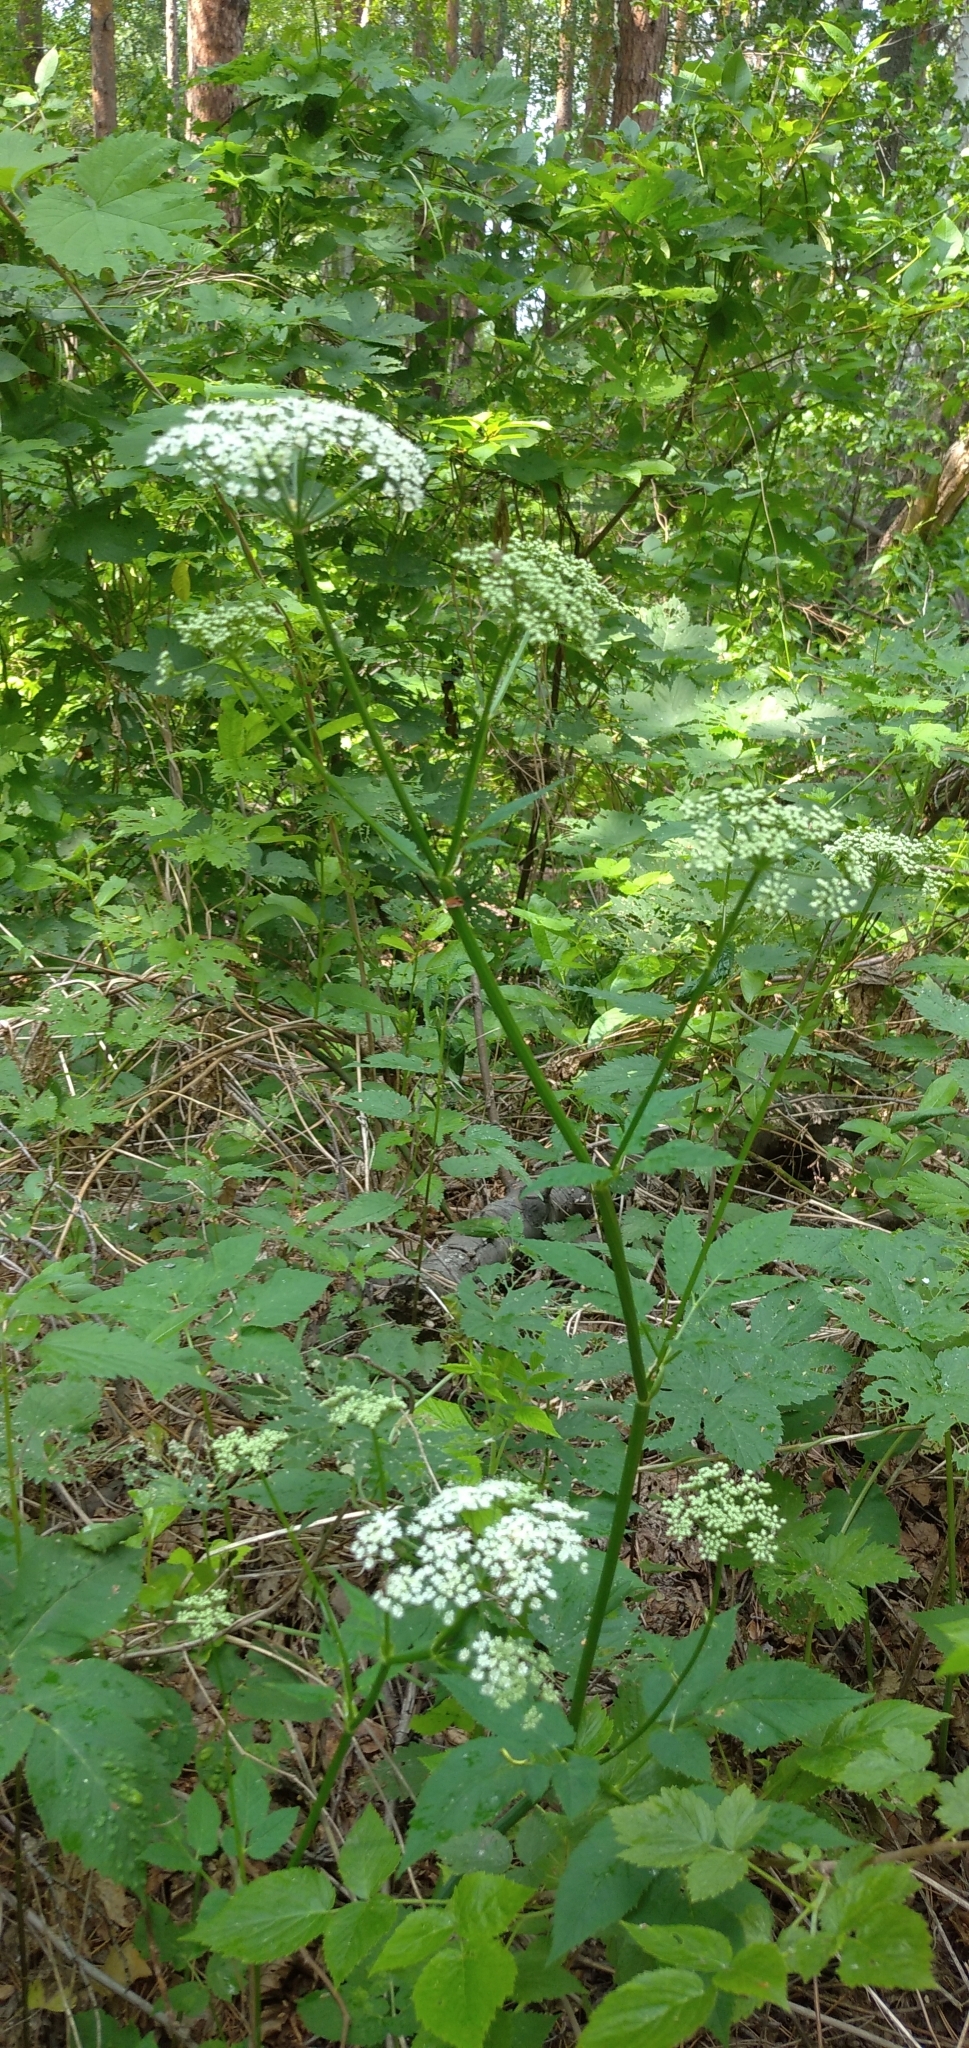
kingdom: Plantae
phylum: Tracheophyta
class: Magnoliopsida
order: Apiales
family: Apiaceae
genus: Aegopodium
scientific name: Aegopodium podagraria
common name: Ground-elder
